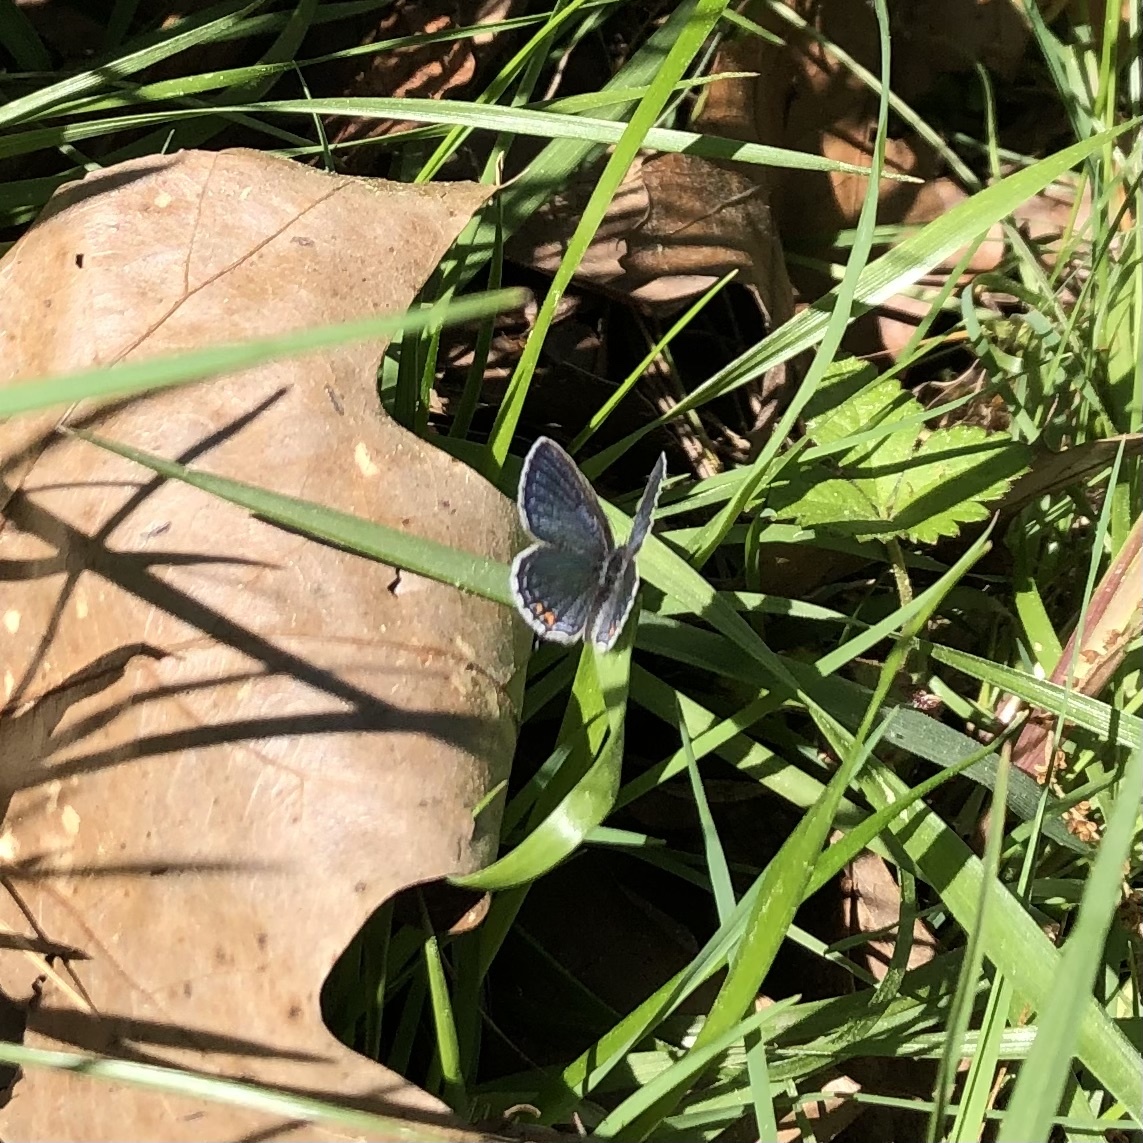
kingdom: Animalia
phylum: Arthropoda
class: Insecta
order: Lepidoptera
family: Lycaenidae
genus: Elkalyce
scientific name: Elkalyce comyntas
